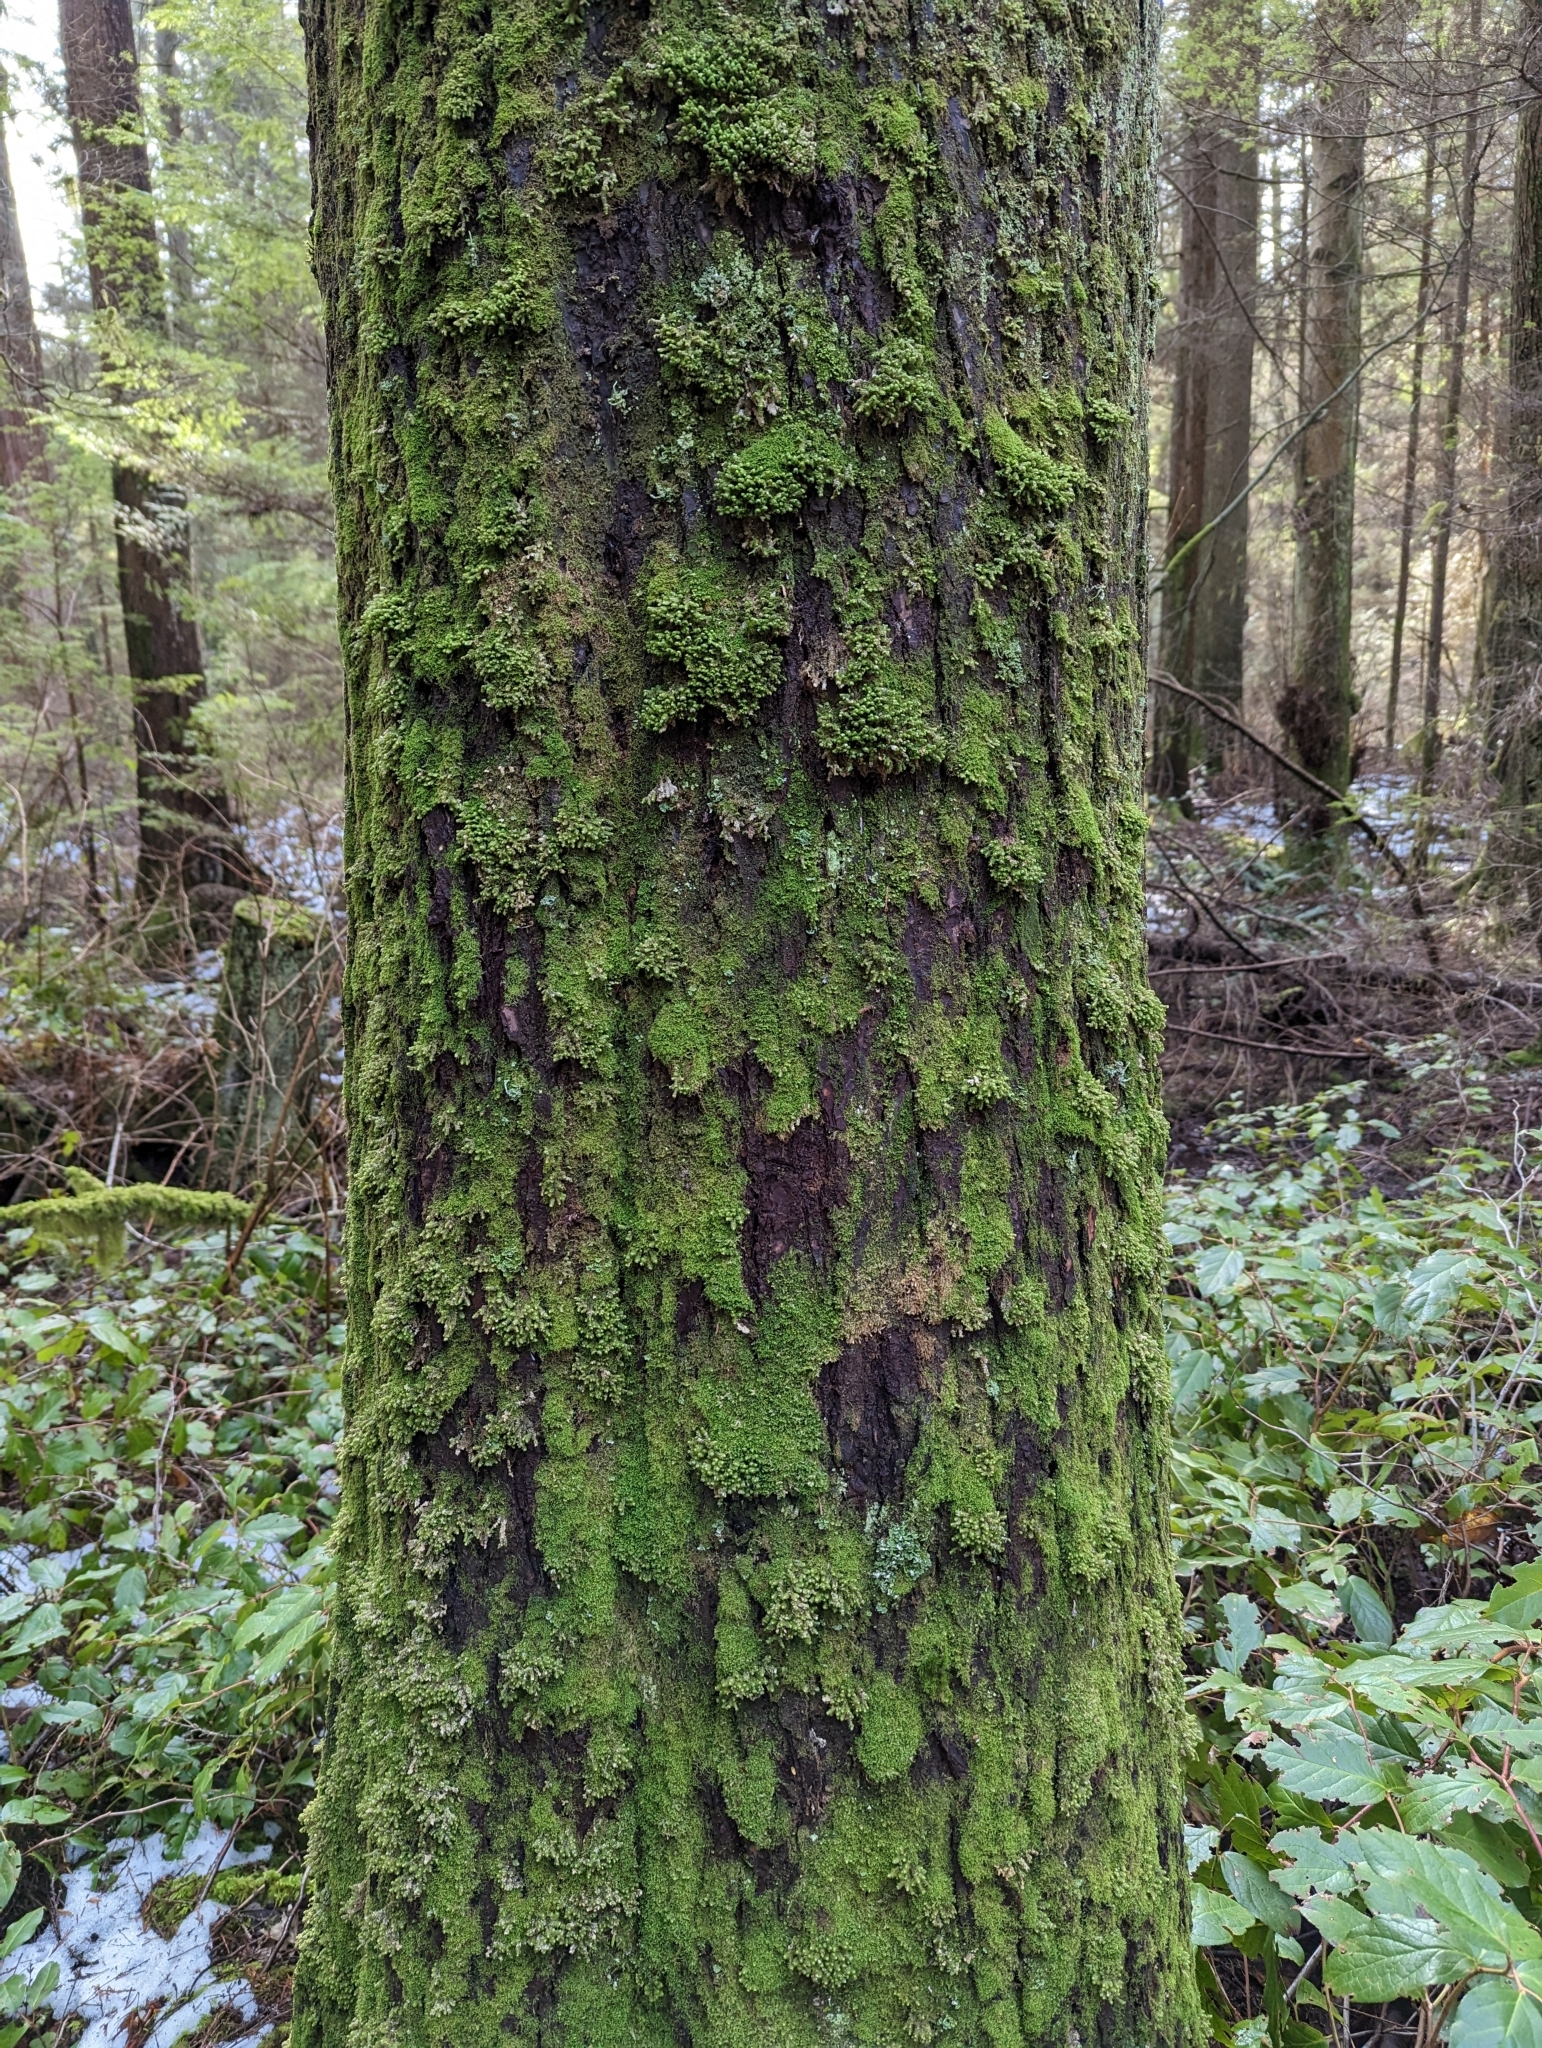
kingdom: Plantae
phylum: Marchantiophyta
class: Jungermanniopsida
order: Jungermanniales
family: Scapaniaceae
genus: Scapania
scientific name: Scapania bolanderi
